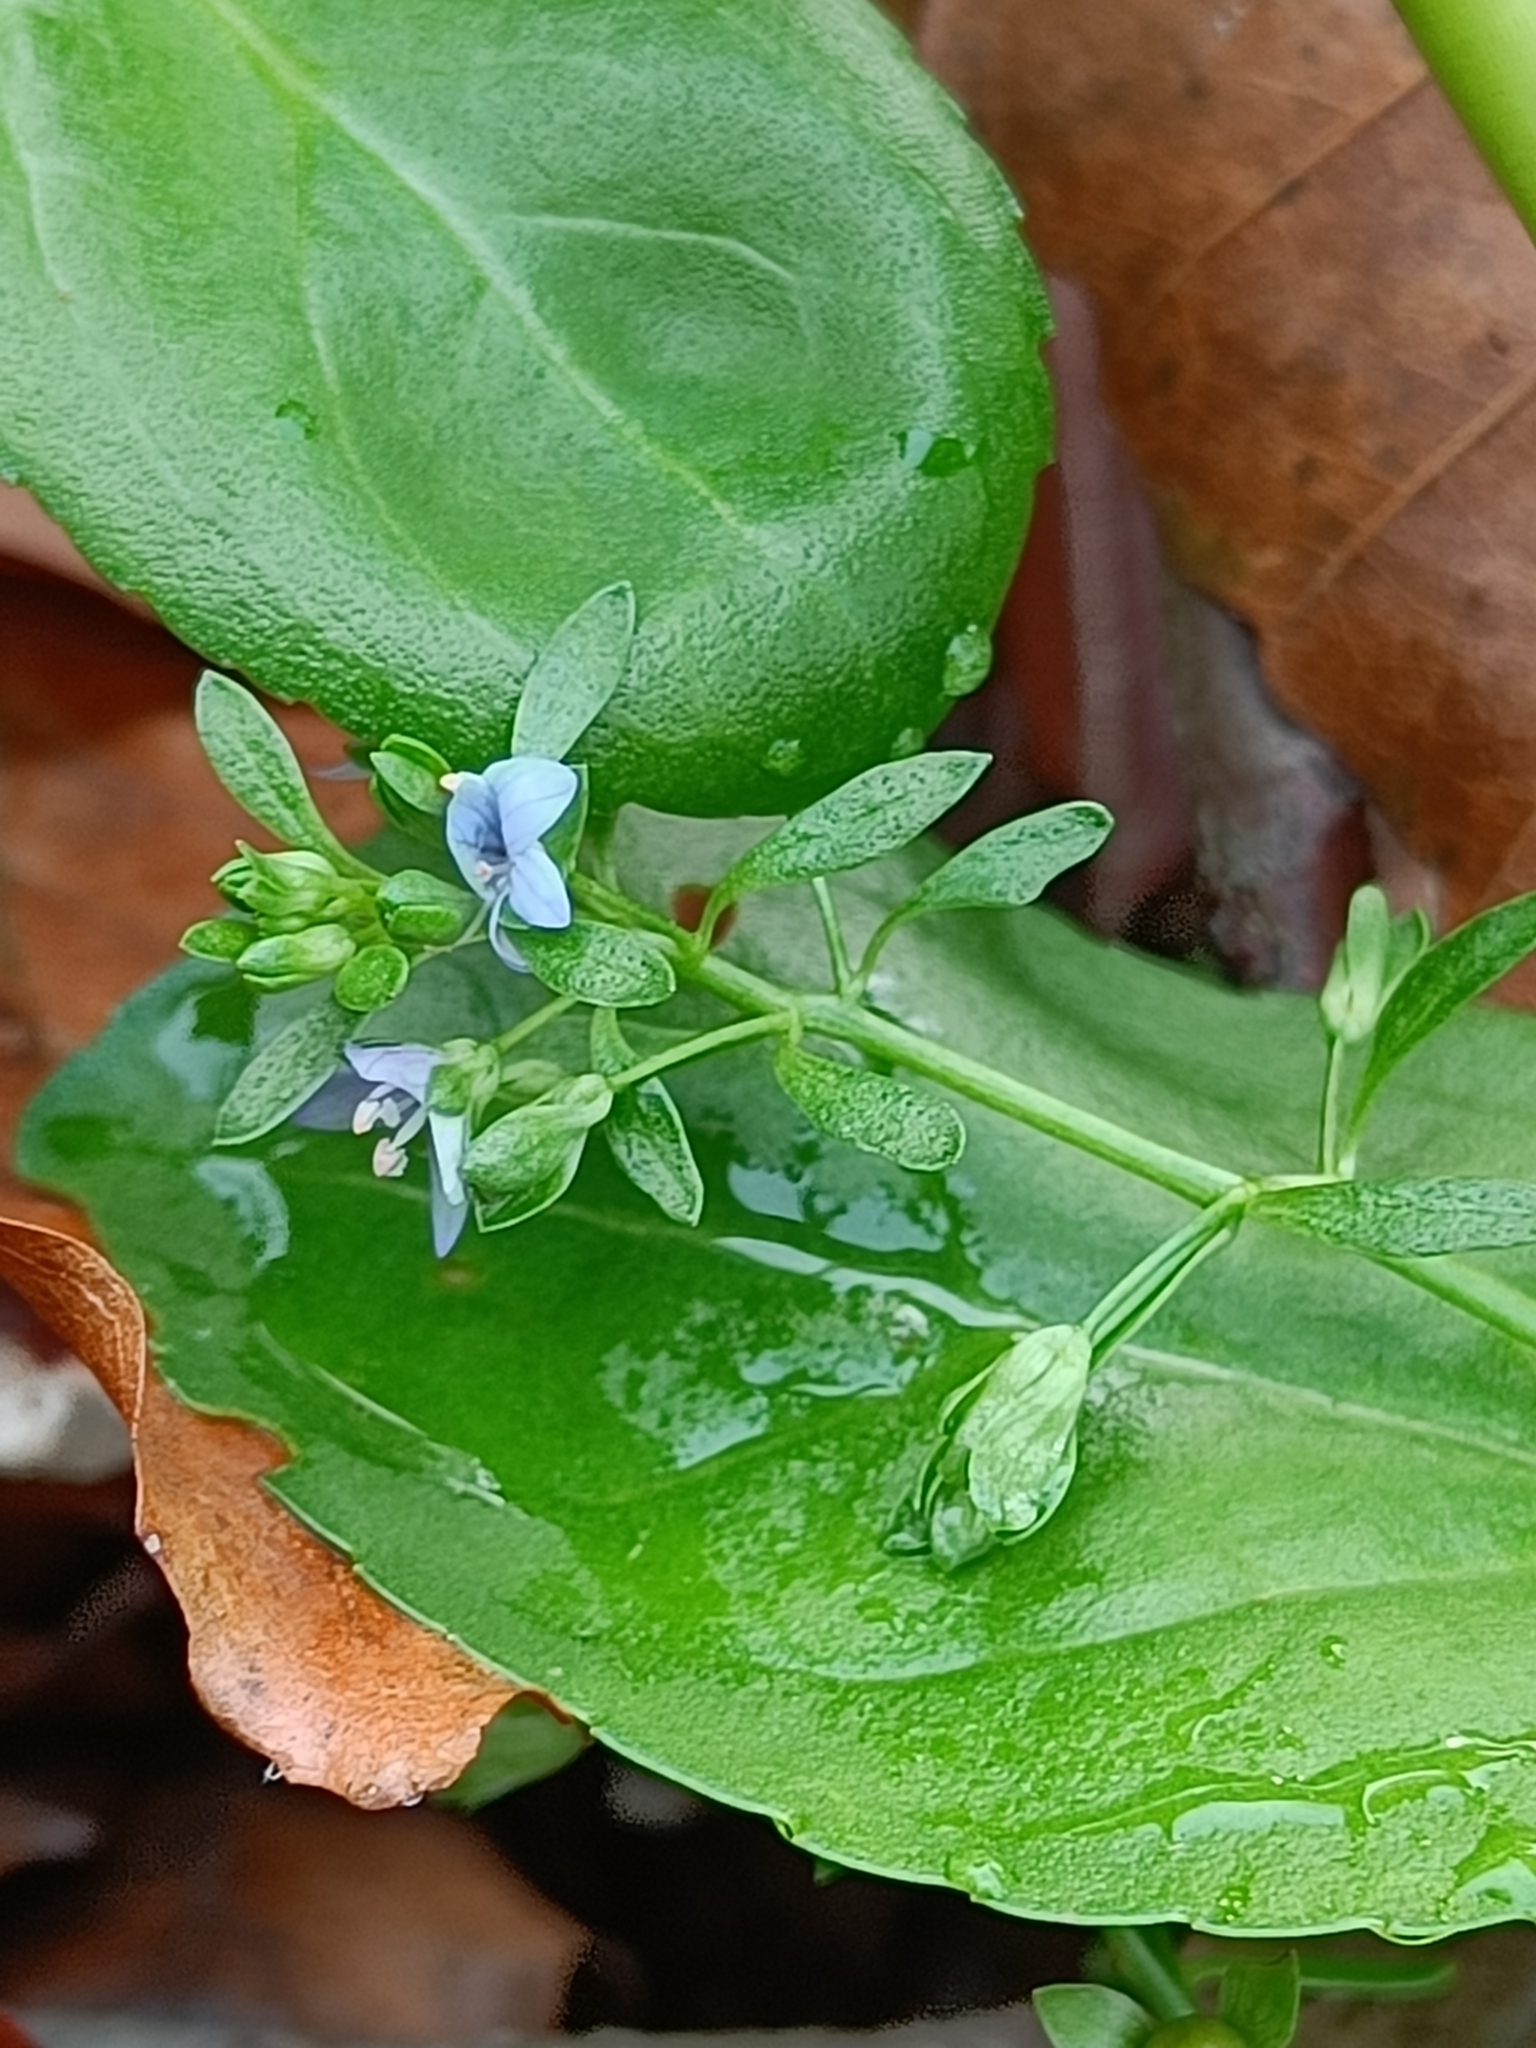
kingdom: Plantae
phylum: Tracheophyta
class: Magnoliopsida
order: Lamiales
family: Plantaginaceae
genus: Veronica
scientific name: Veronica beccabunga
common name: Brooklime
